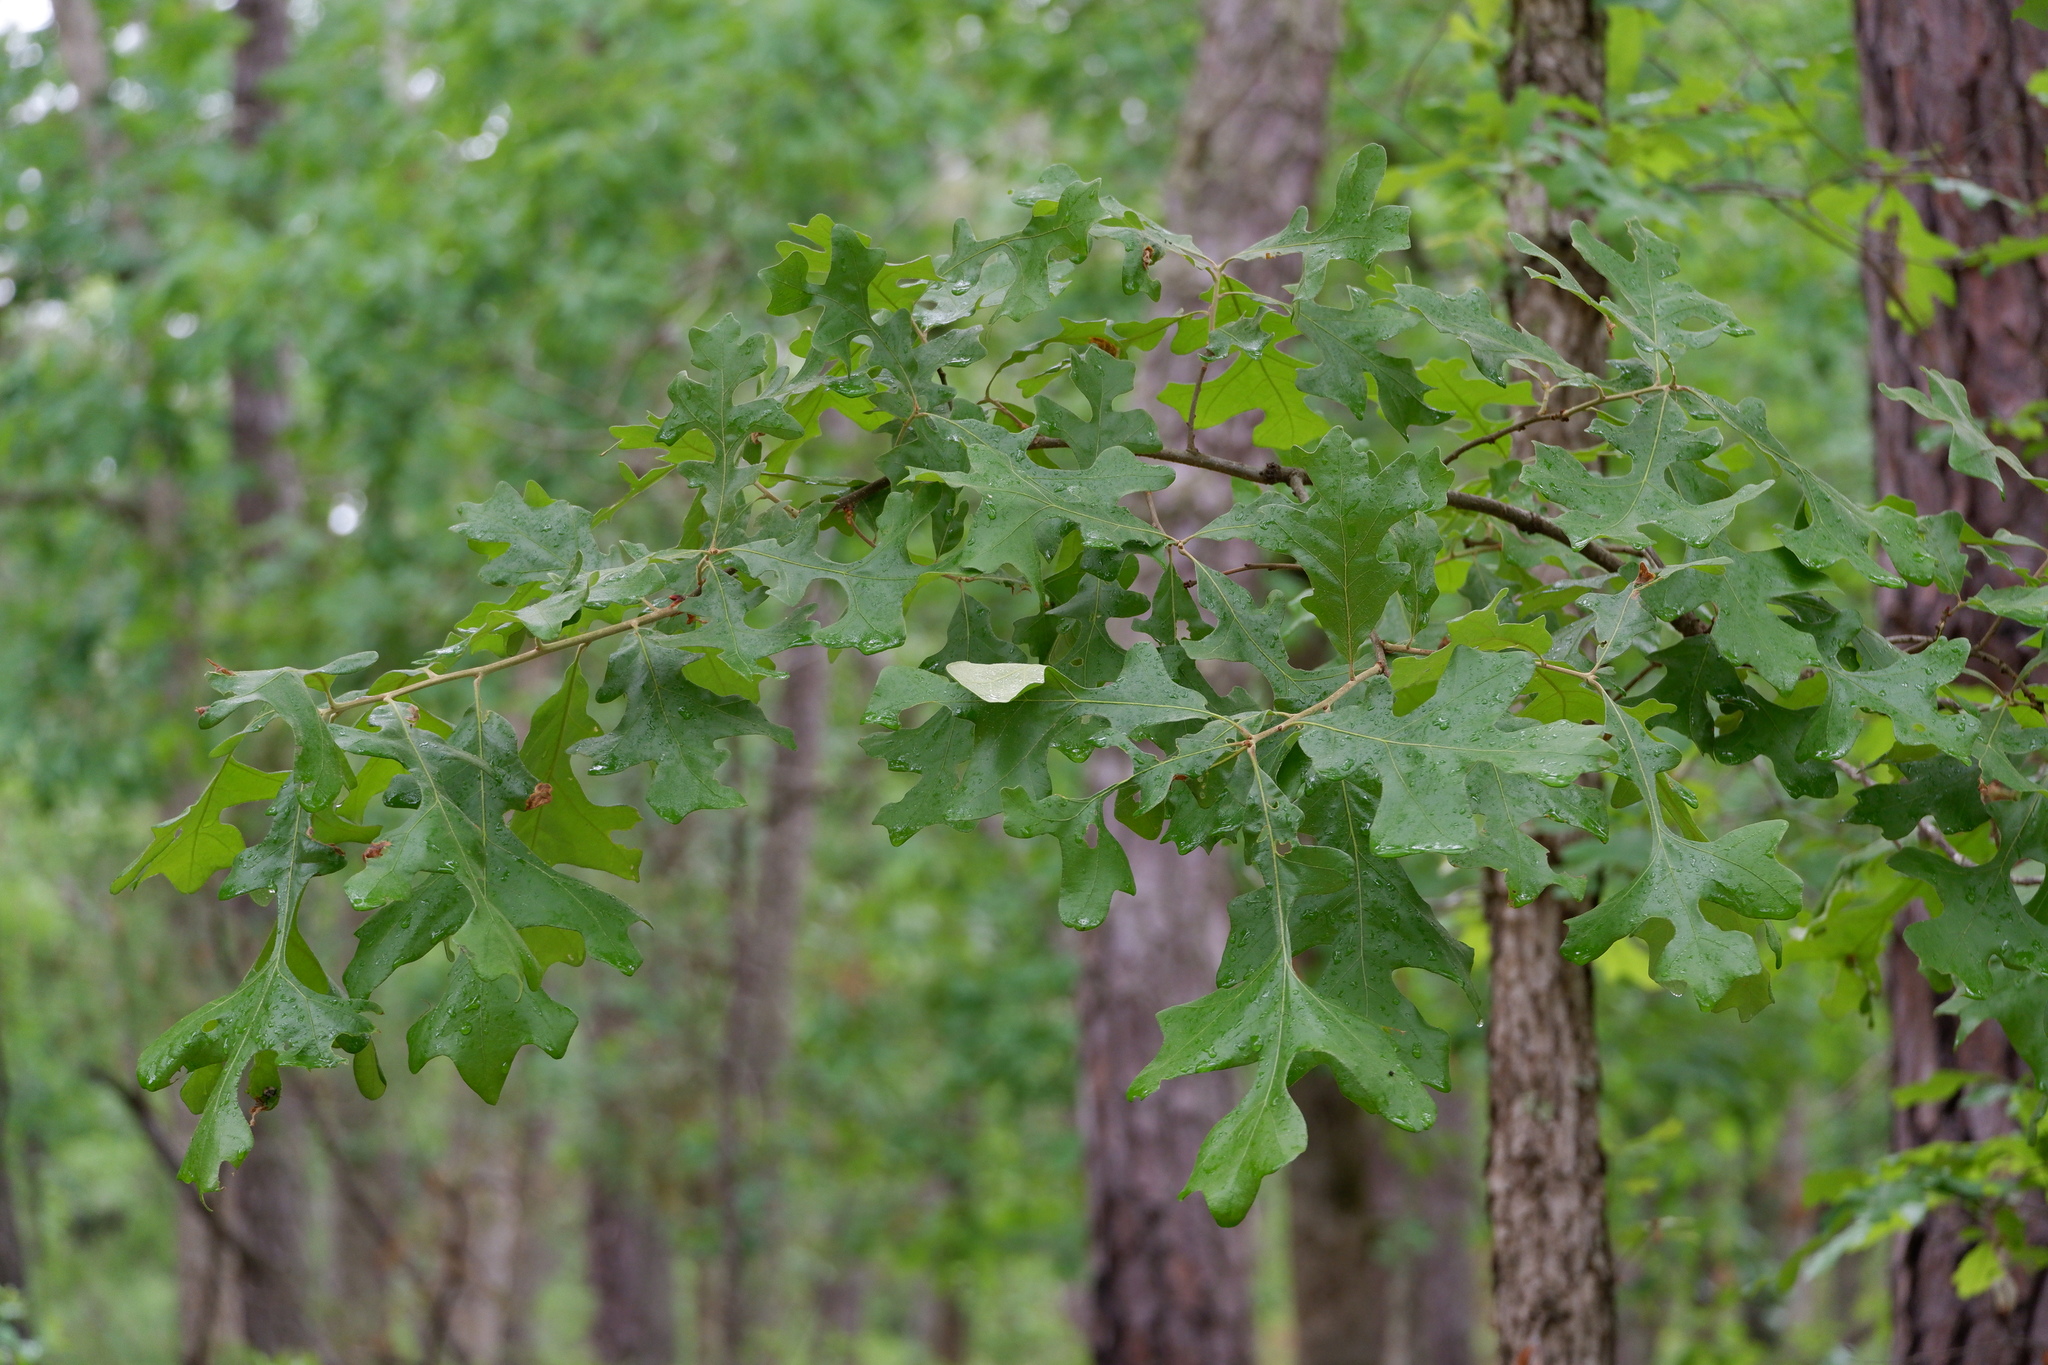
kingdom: Plantae
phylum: Tracheophyta
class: Magnoliopsida
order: Fagales
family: Fagaceae
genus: Quercus
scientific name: Quercus stellata
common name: Post oak
